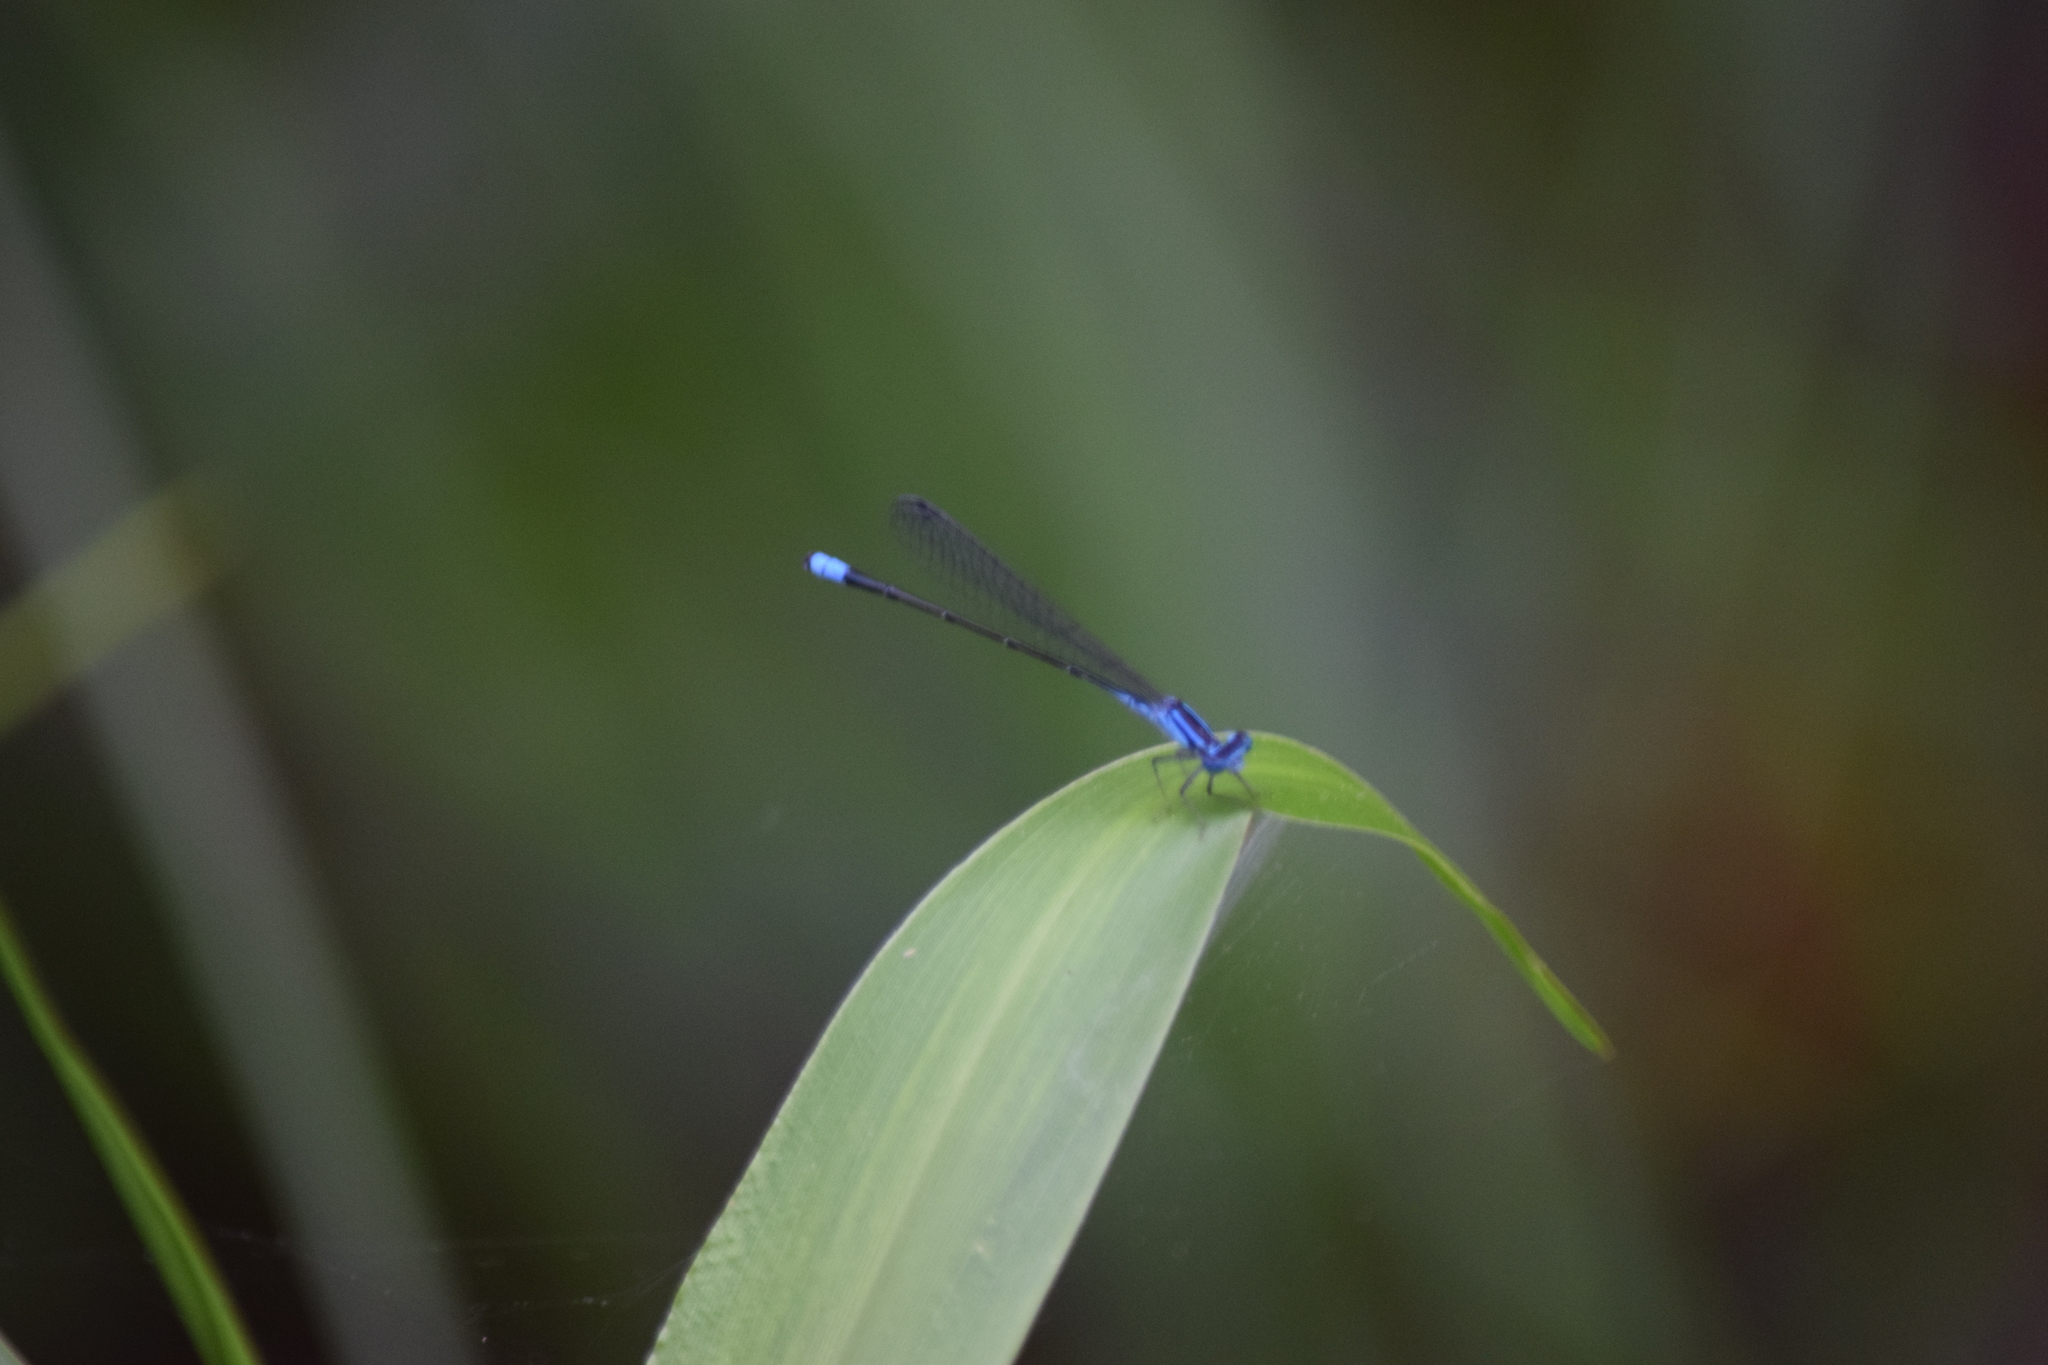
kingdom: Animalia
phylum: Arthropoda
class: Insecta
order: Odonata
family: Coenagrionidae
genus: Enallagma
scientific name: Enallagma traviatum
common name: Slender bluet
